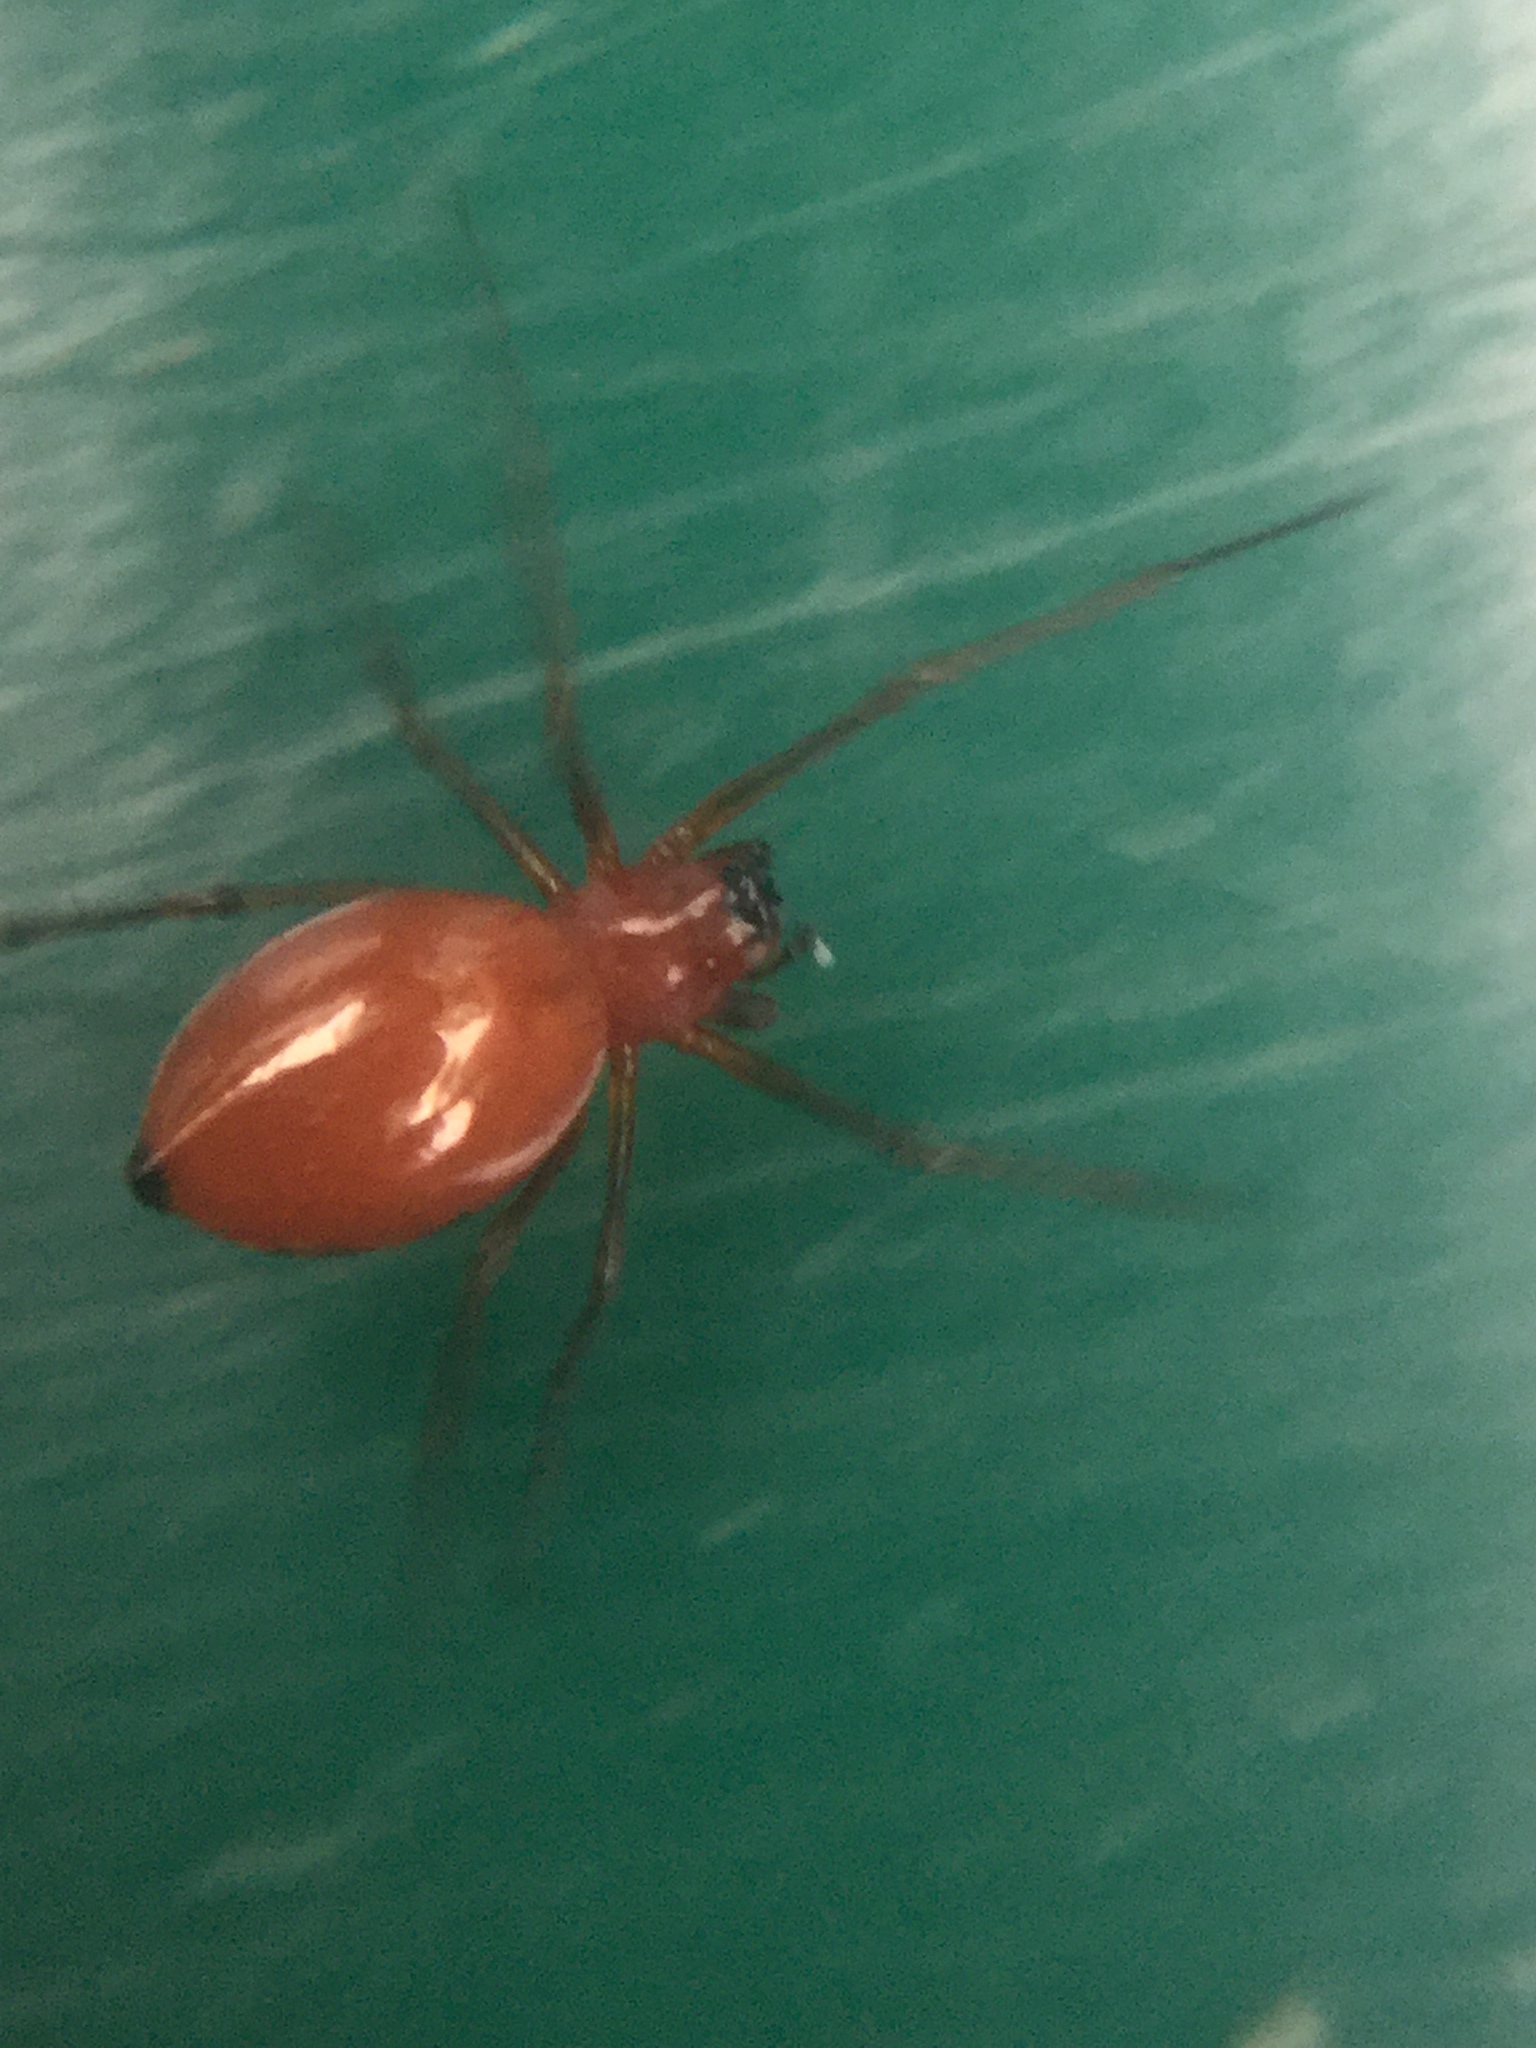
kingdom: Animalia
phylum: Arthropoda
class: Arachnida
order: Araneae
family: Linyphiidae
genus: Florinda
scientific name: Florinda coccinea
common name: Black-tailed red sheetweaver
